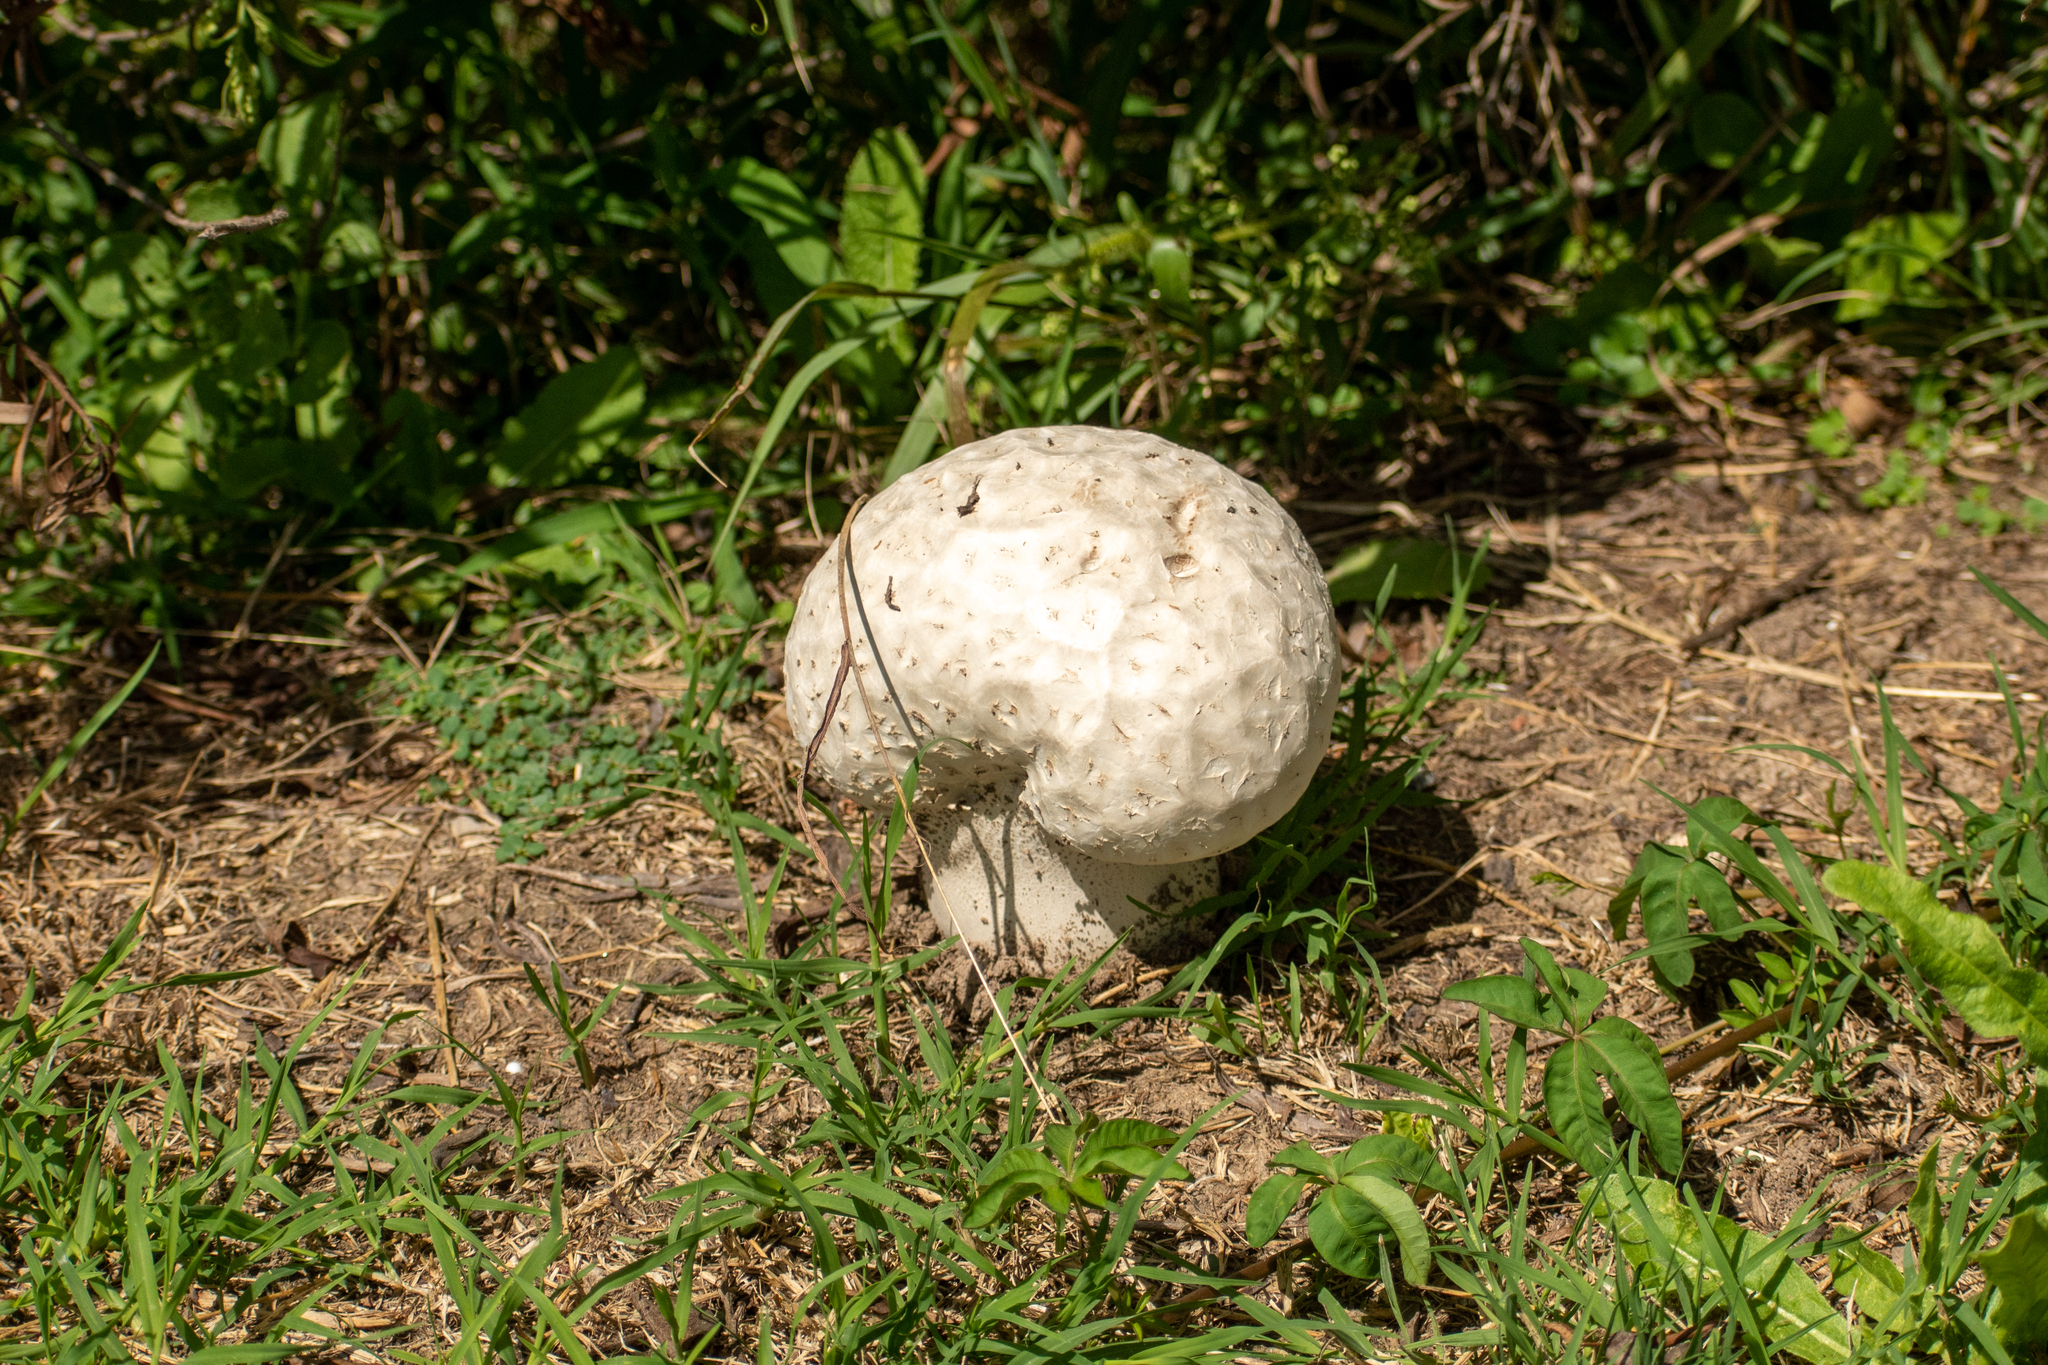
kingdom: Fungi
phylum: Basidiomycota
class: Agaricomycetes
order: Agaricales
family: Lycoperdaceae
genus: Calvatia
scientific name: Calvatia cyathiformis
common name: Purple-spored puffball
